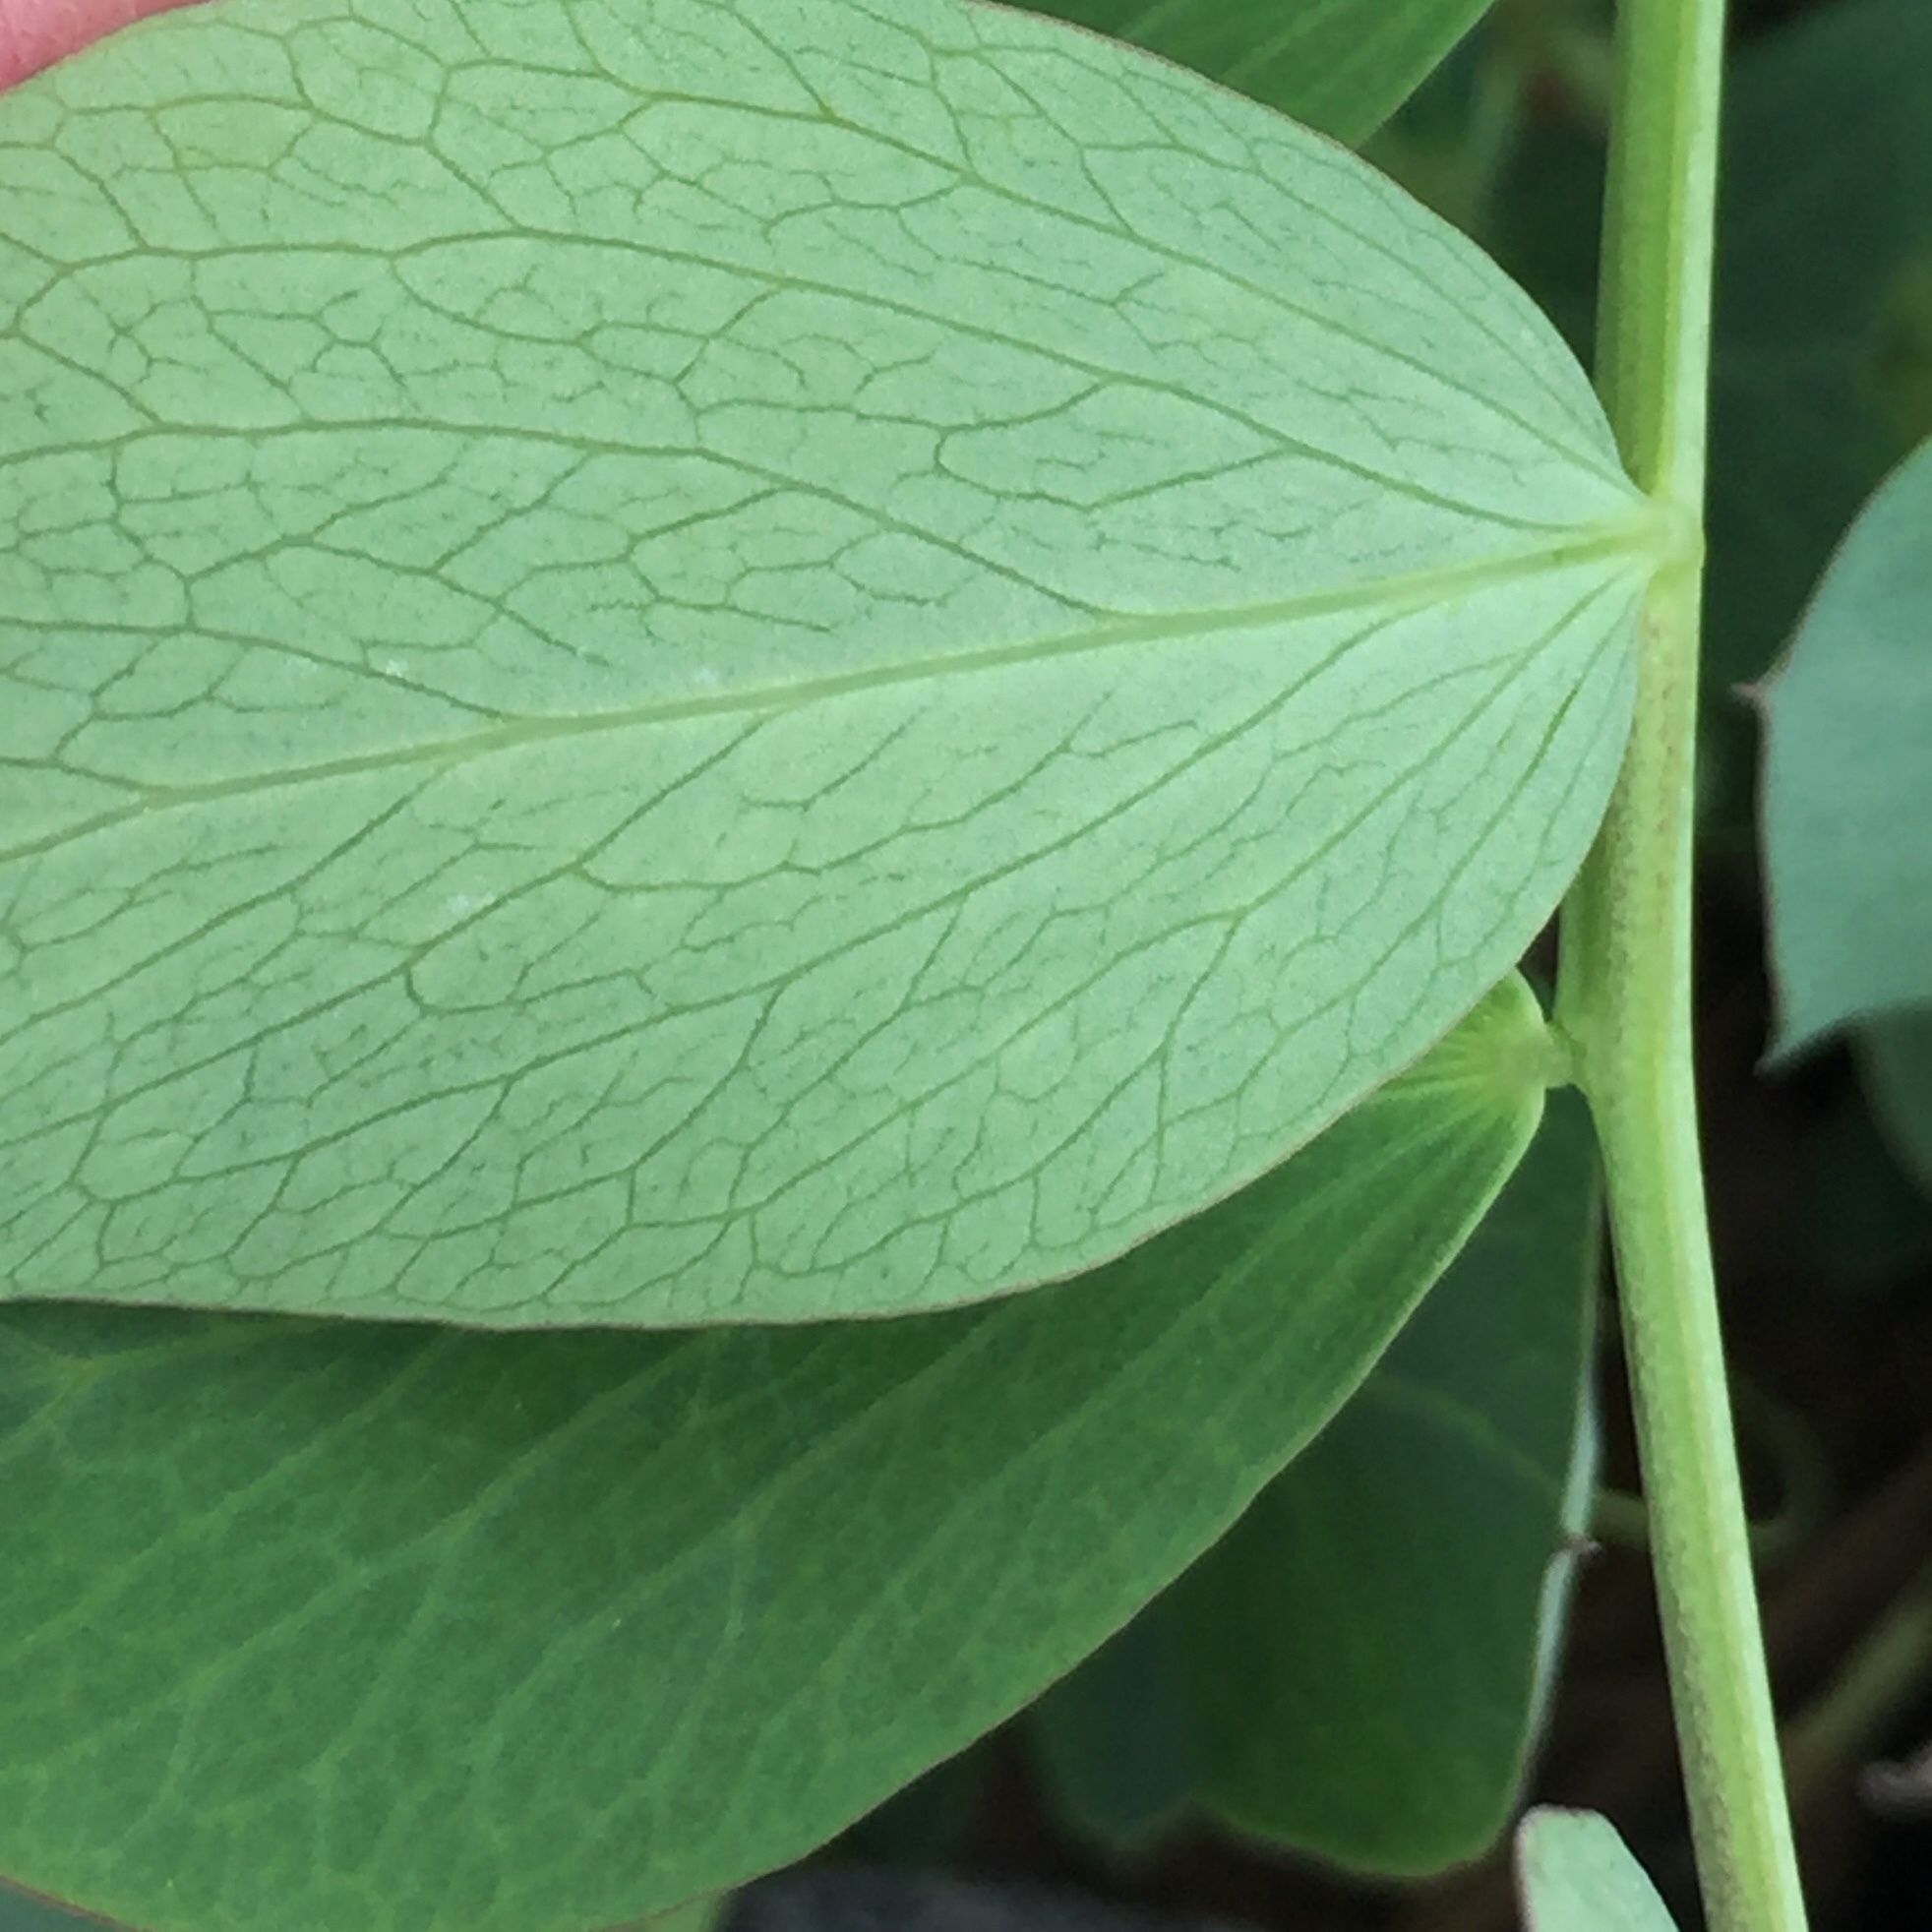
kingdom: Plantae
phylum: Tracheophyta
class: Magnoliopsida
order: Fabales
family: Fabaceae
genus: Lathyrus
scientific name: Lathyrus japonicus
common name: Sea pea
